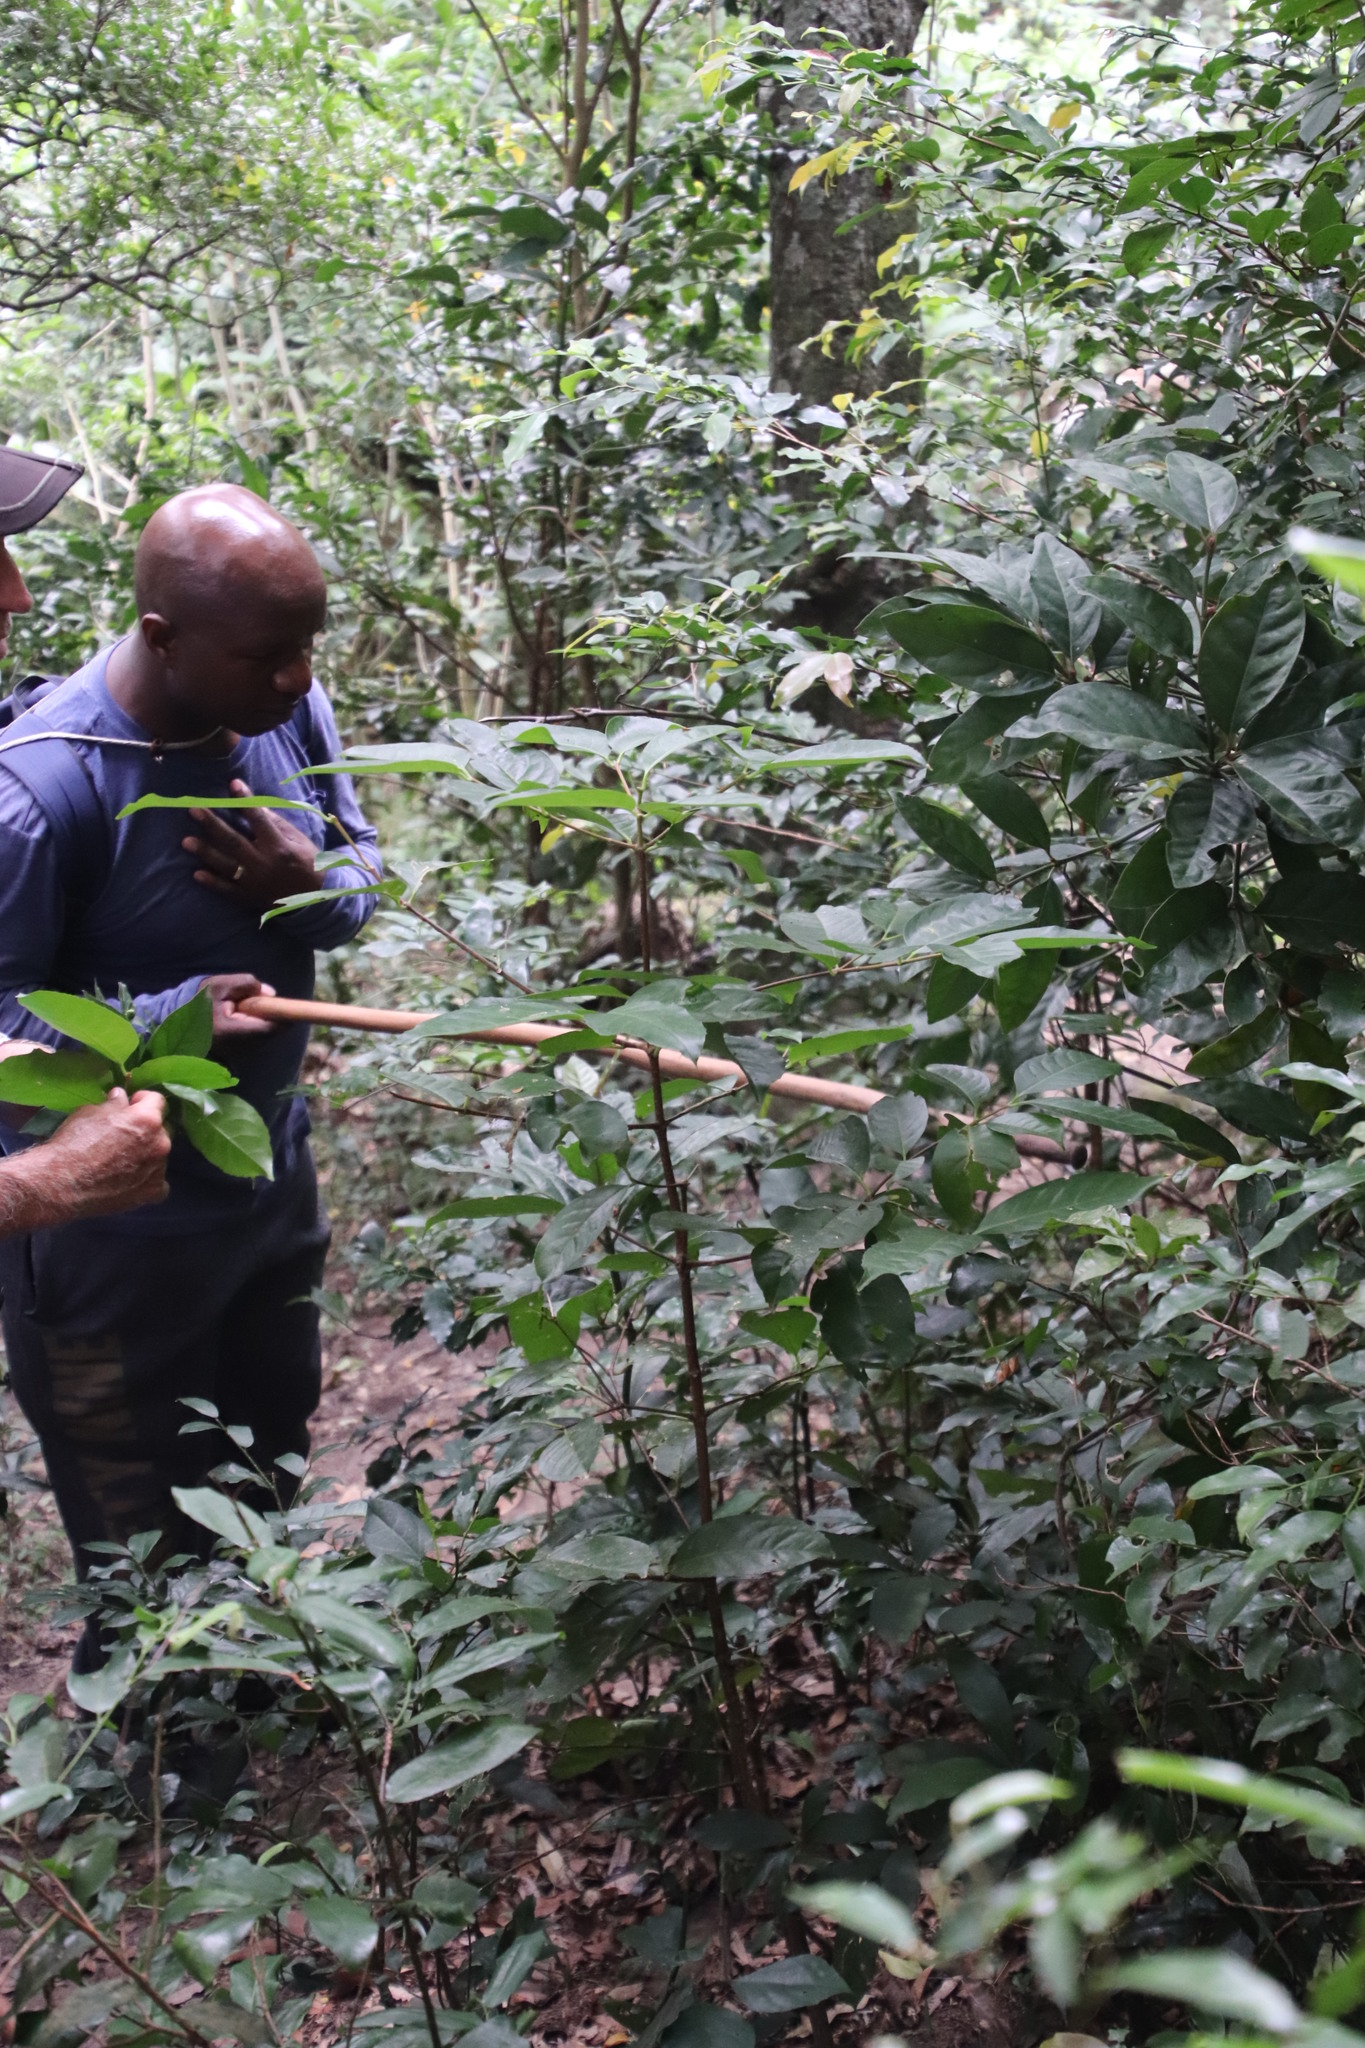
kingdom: Plantae
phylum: Tracheophyta
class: Magnoliopsida
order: Malpighiales
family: Rhizophoraceae
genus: Cassipourea
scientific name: Cassipourea gummiflua
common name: Large-leaved onionwood
